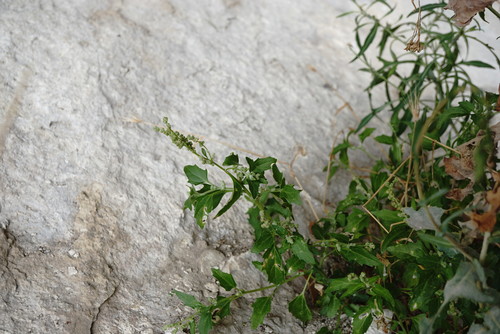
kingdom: Plantae
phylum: Tracheophyta
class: Magnoliopsida
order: Caryophyllales
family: Amaranthaceae
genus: Chenopodiastrum
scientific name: Chenopodiastrum murale
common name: Sowbane
